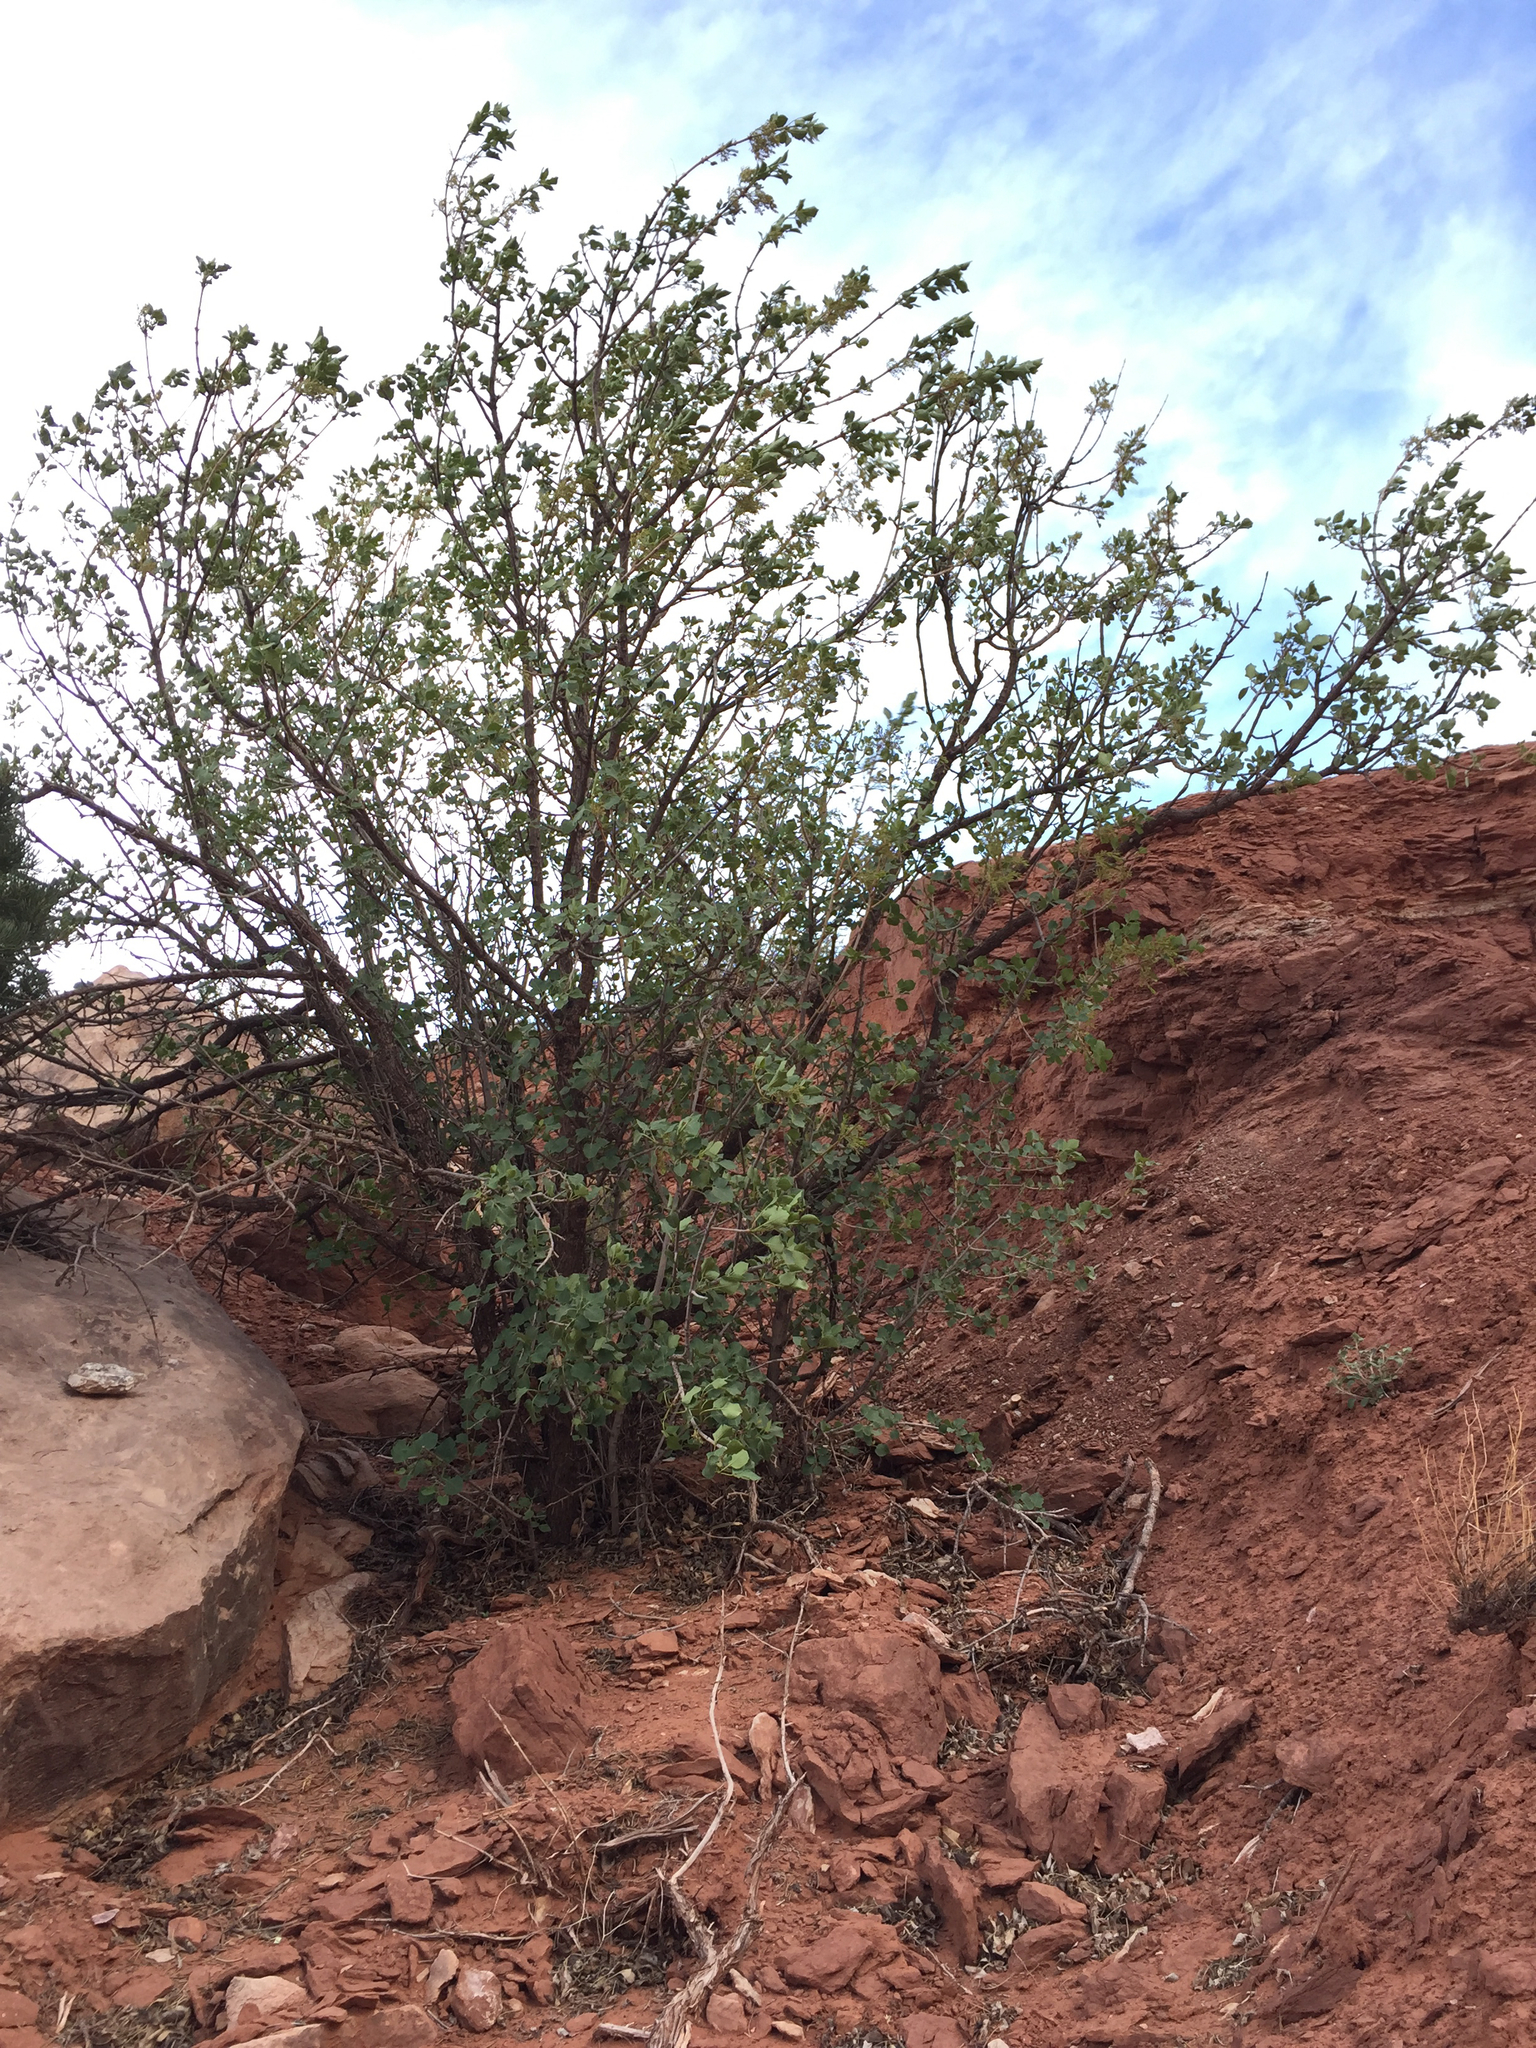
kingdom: Plantae
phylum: Tracheophyta
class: Magnoliopsida
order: Lamiales
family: Oleaceae
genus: Fraxinus
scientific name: Fraxinus anomala
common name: Utah ash
